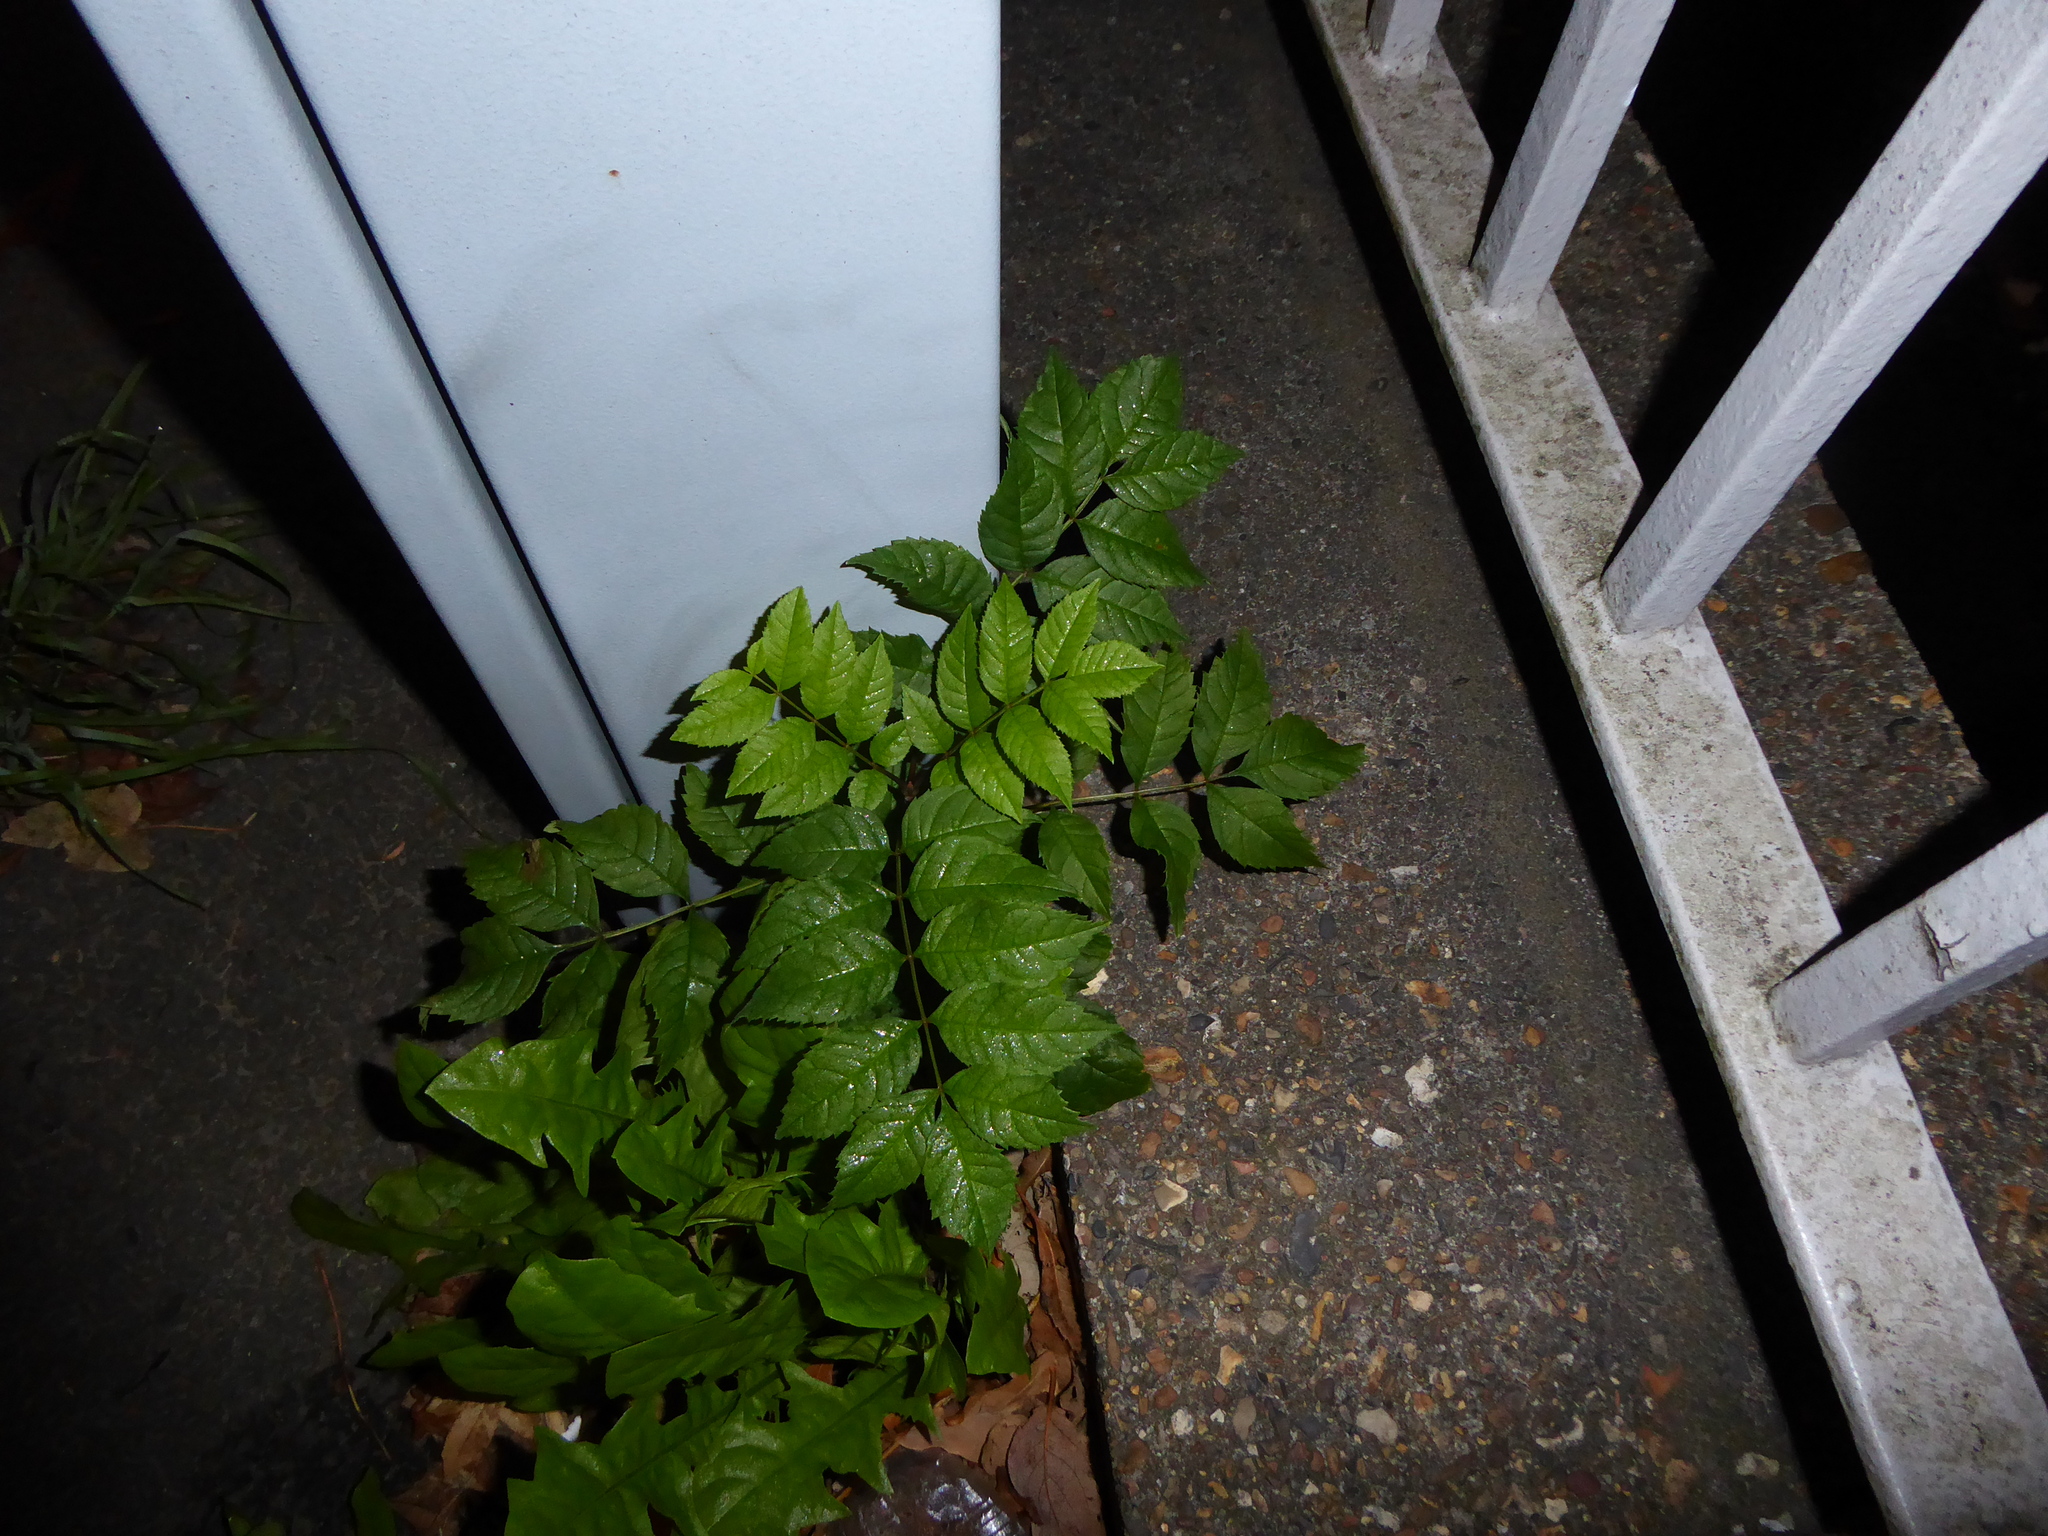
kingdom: Plantae
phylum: Tracheophyta
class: Magnoliopsida
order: Lamiales
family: Oleaceae
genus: Fraxinus
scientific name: Fraxinus excelsior
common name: European ash
